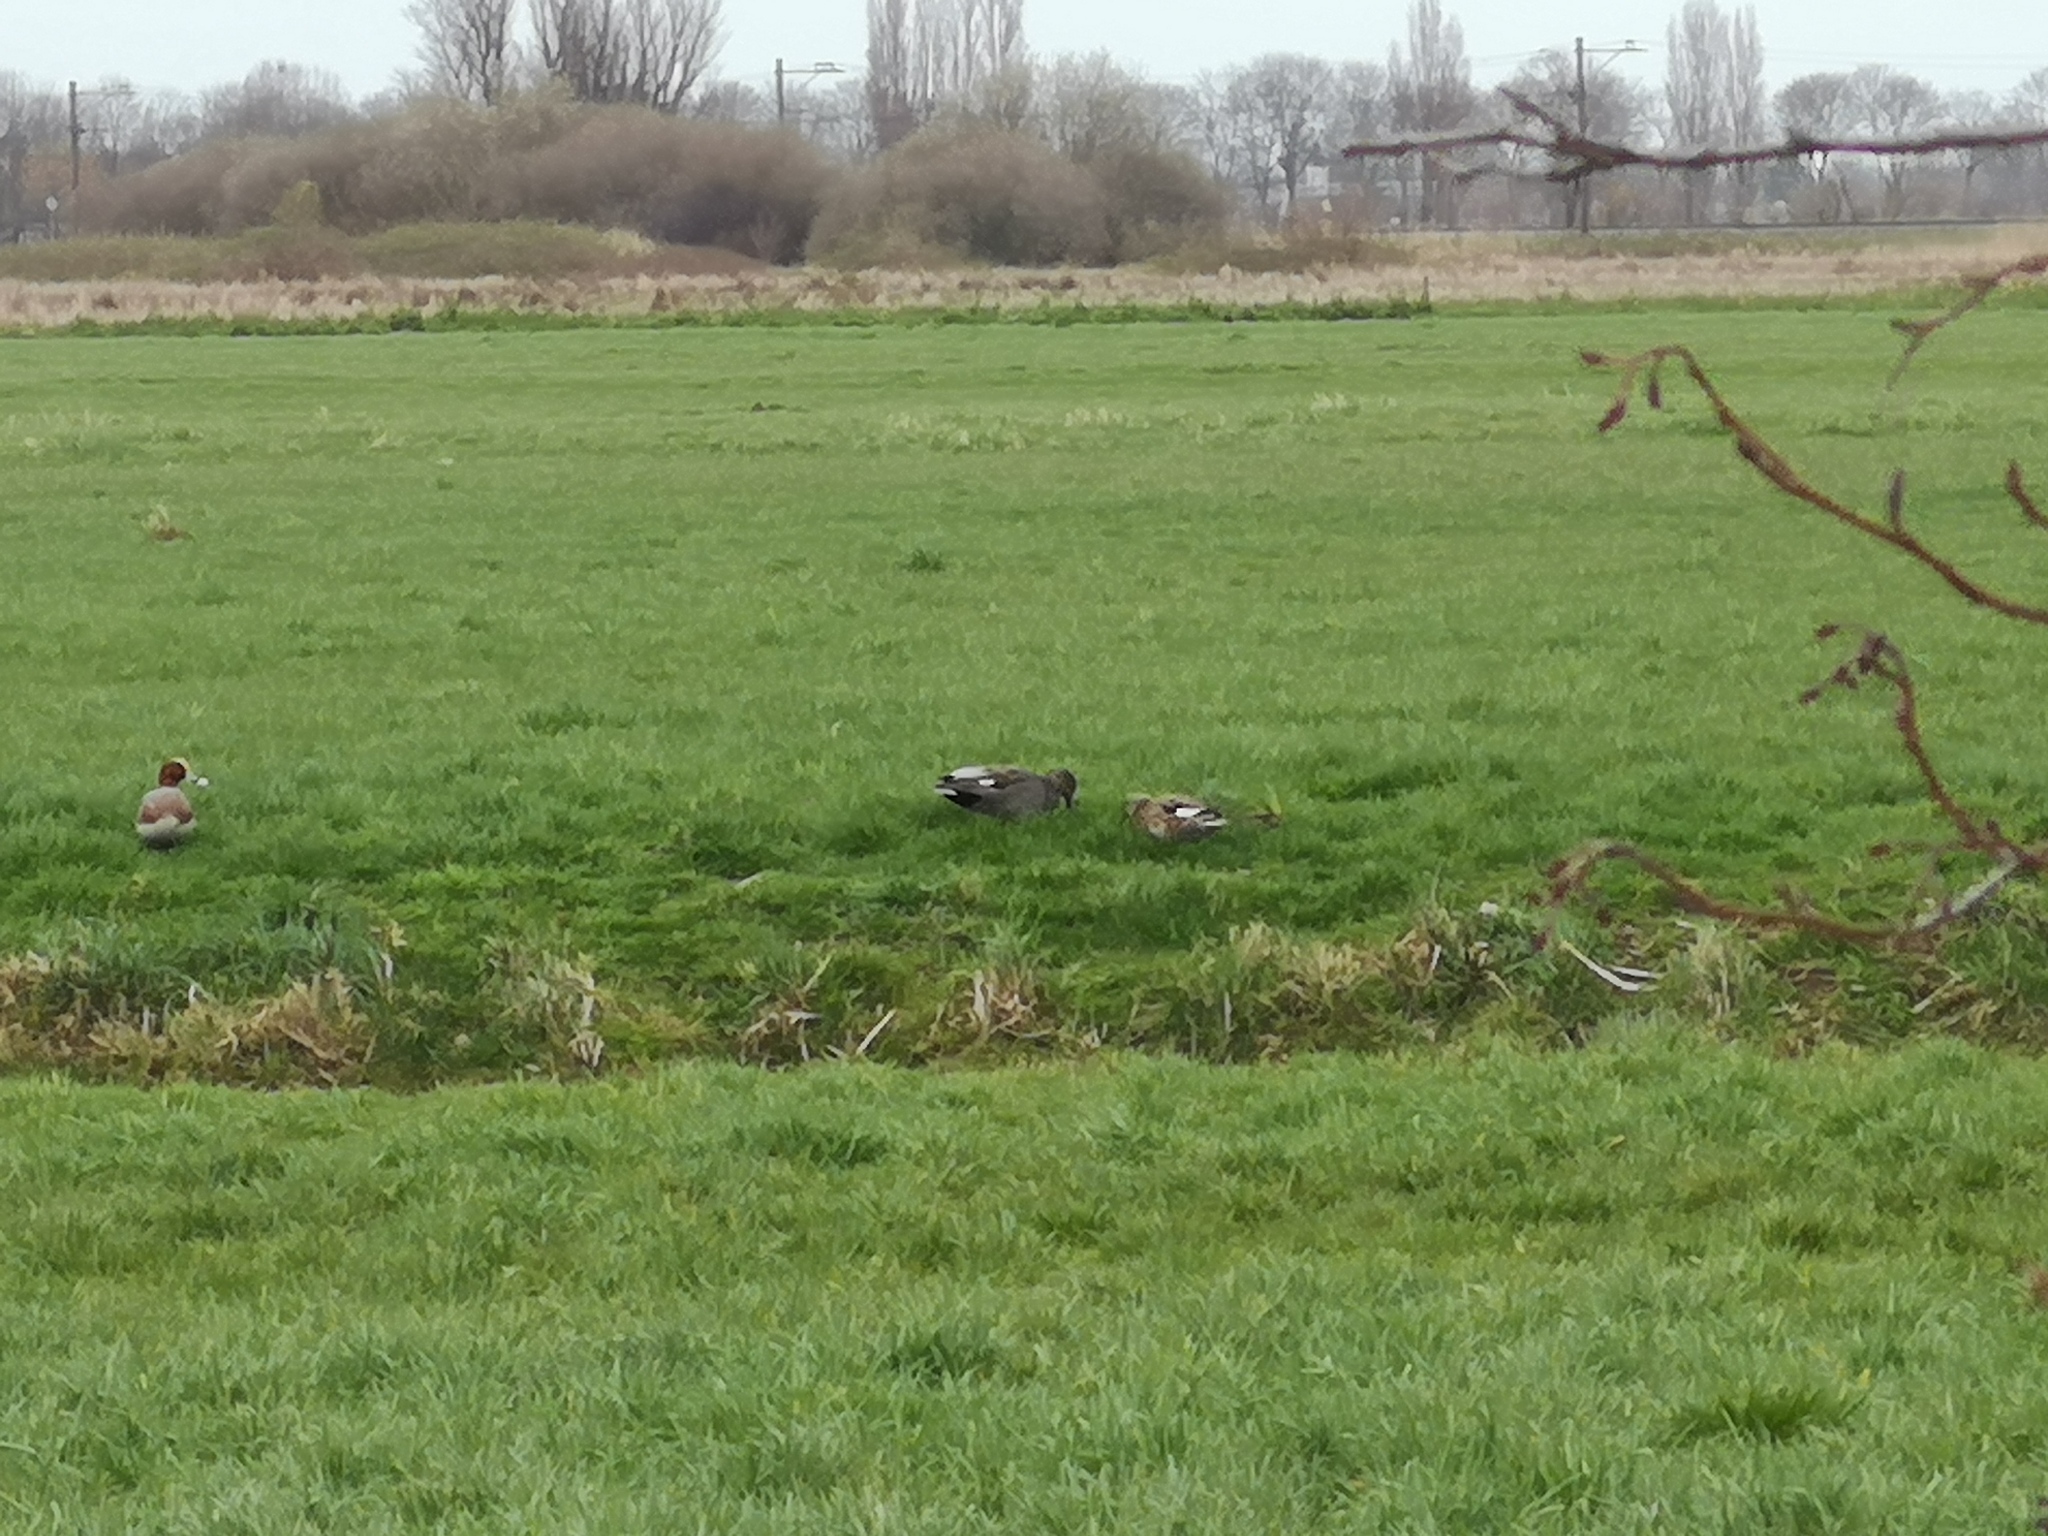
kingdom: Animalia
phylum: Chordata
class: Aves
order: Anseriformes
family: Anatidae
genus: Mareca
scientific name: Mareca strepera
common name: Gadwall
